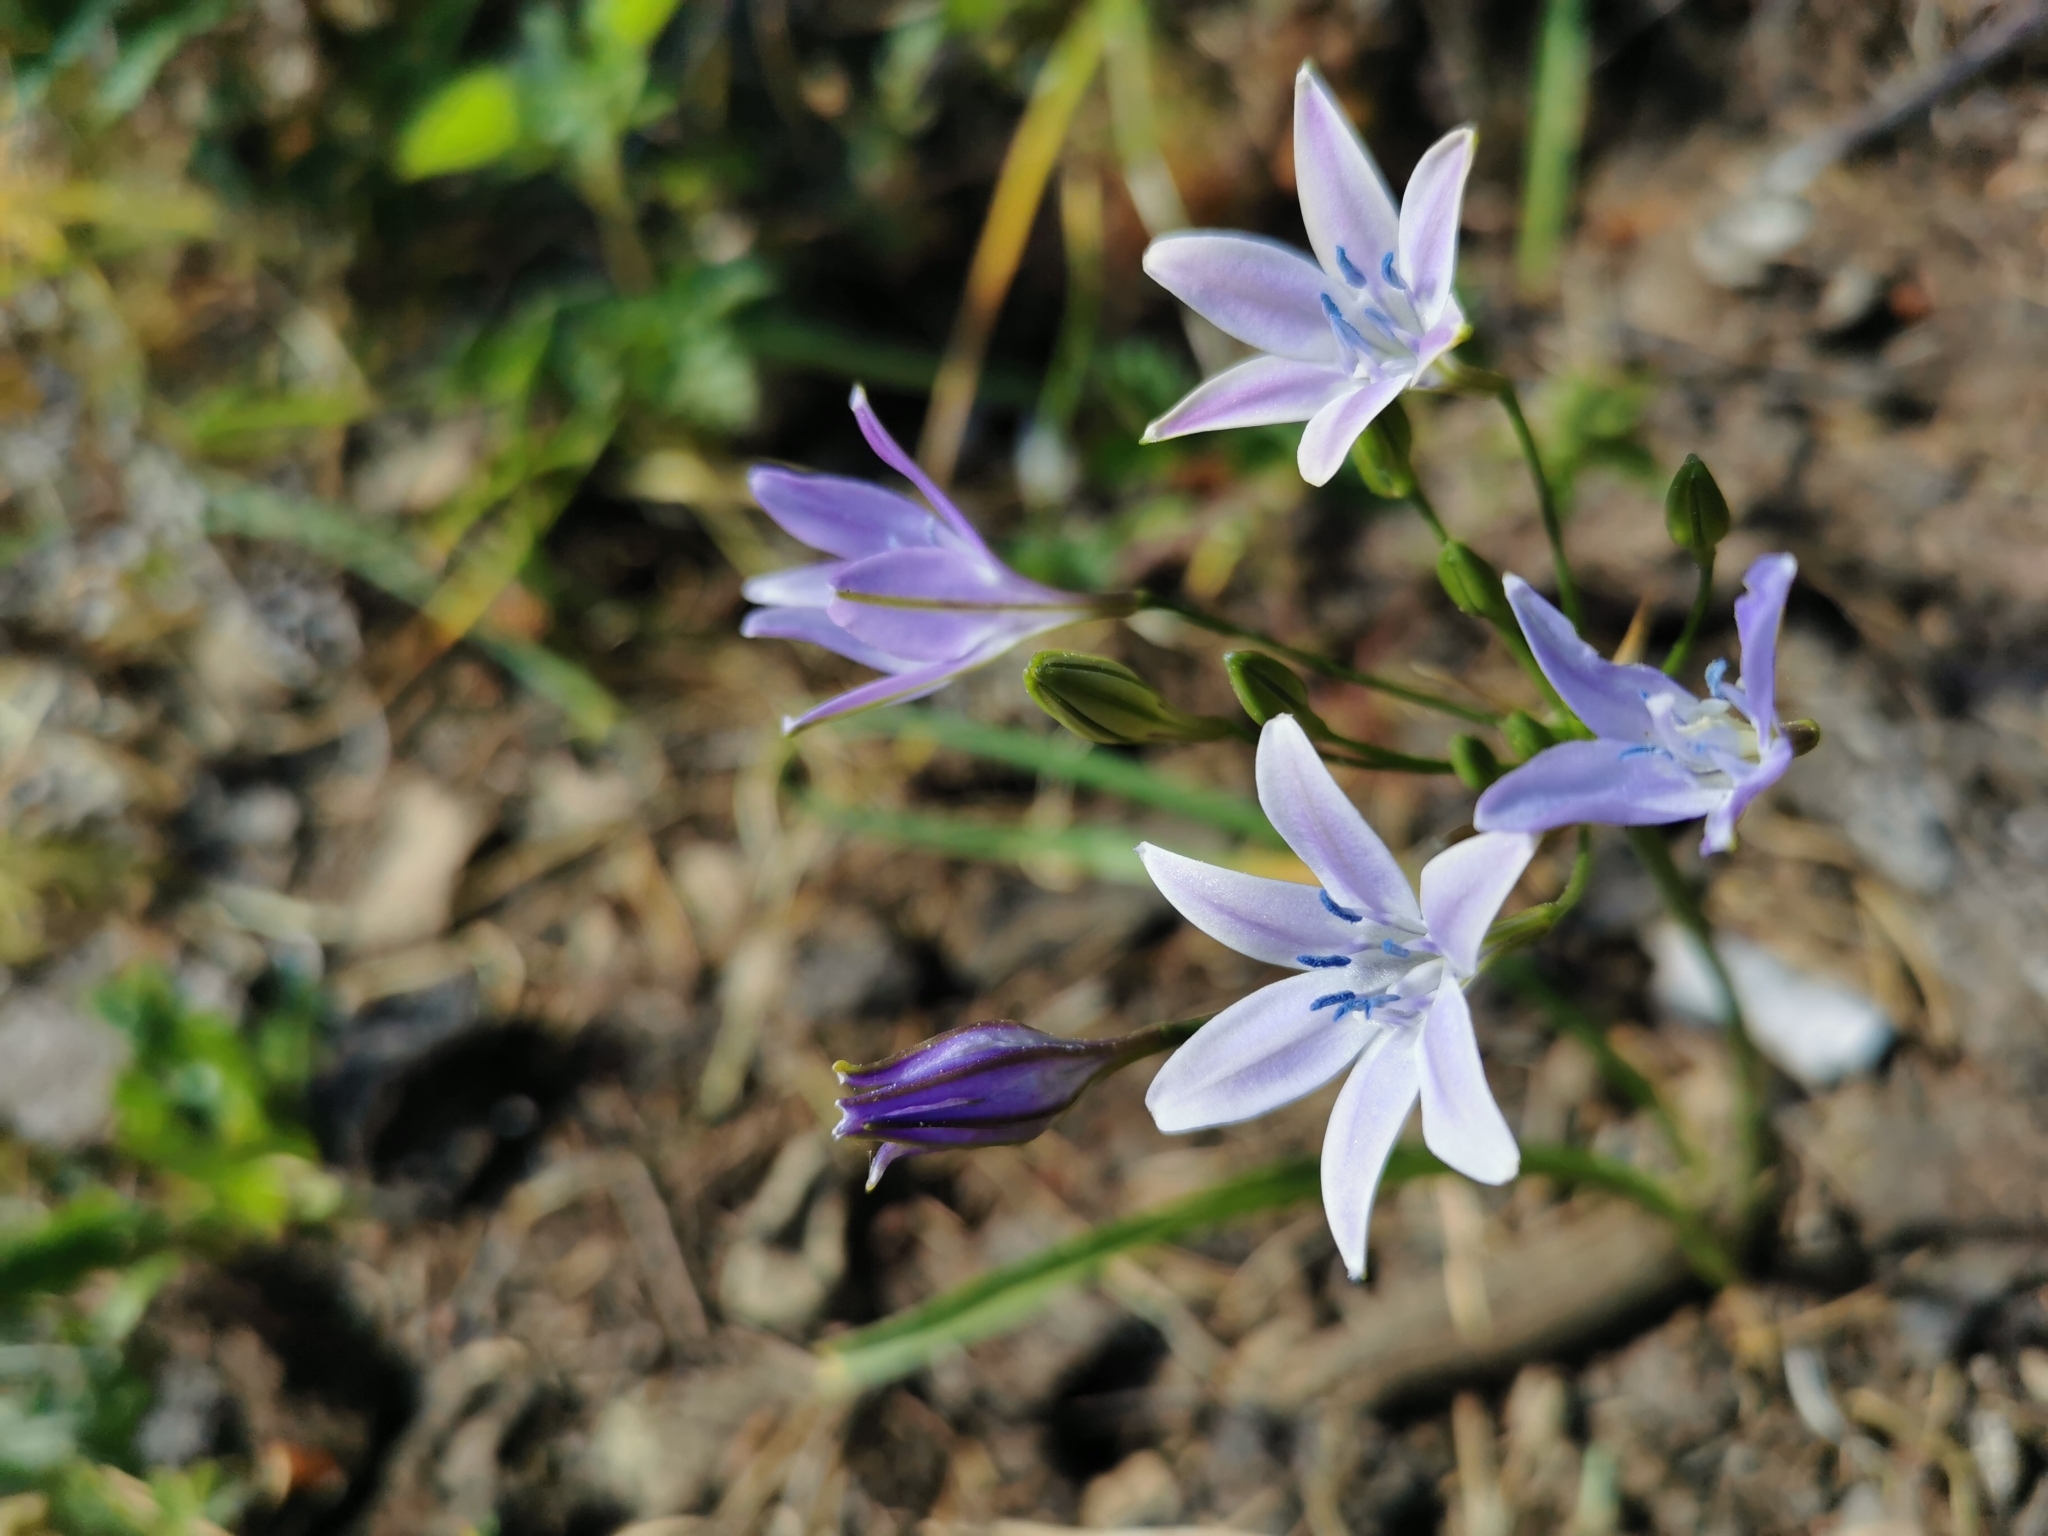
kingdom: Plantae
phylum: Tracheophyta
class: Liliopsida
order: Asparagales
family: Asparagaceae
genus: Triteleia
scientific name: Triteleia bridgesii
